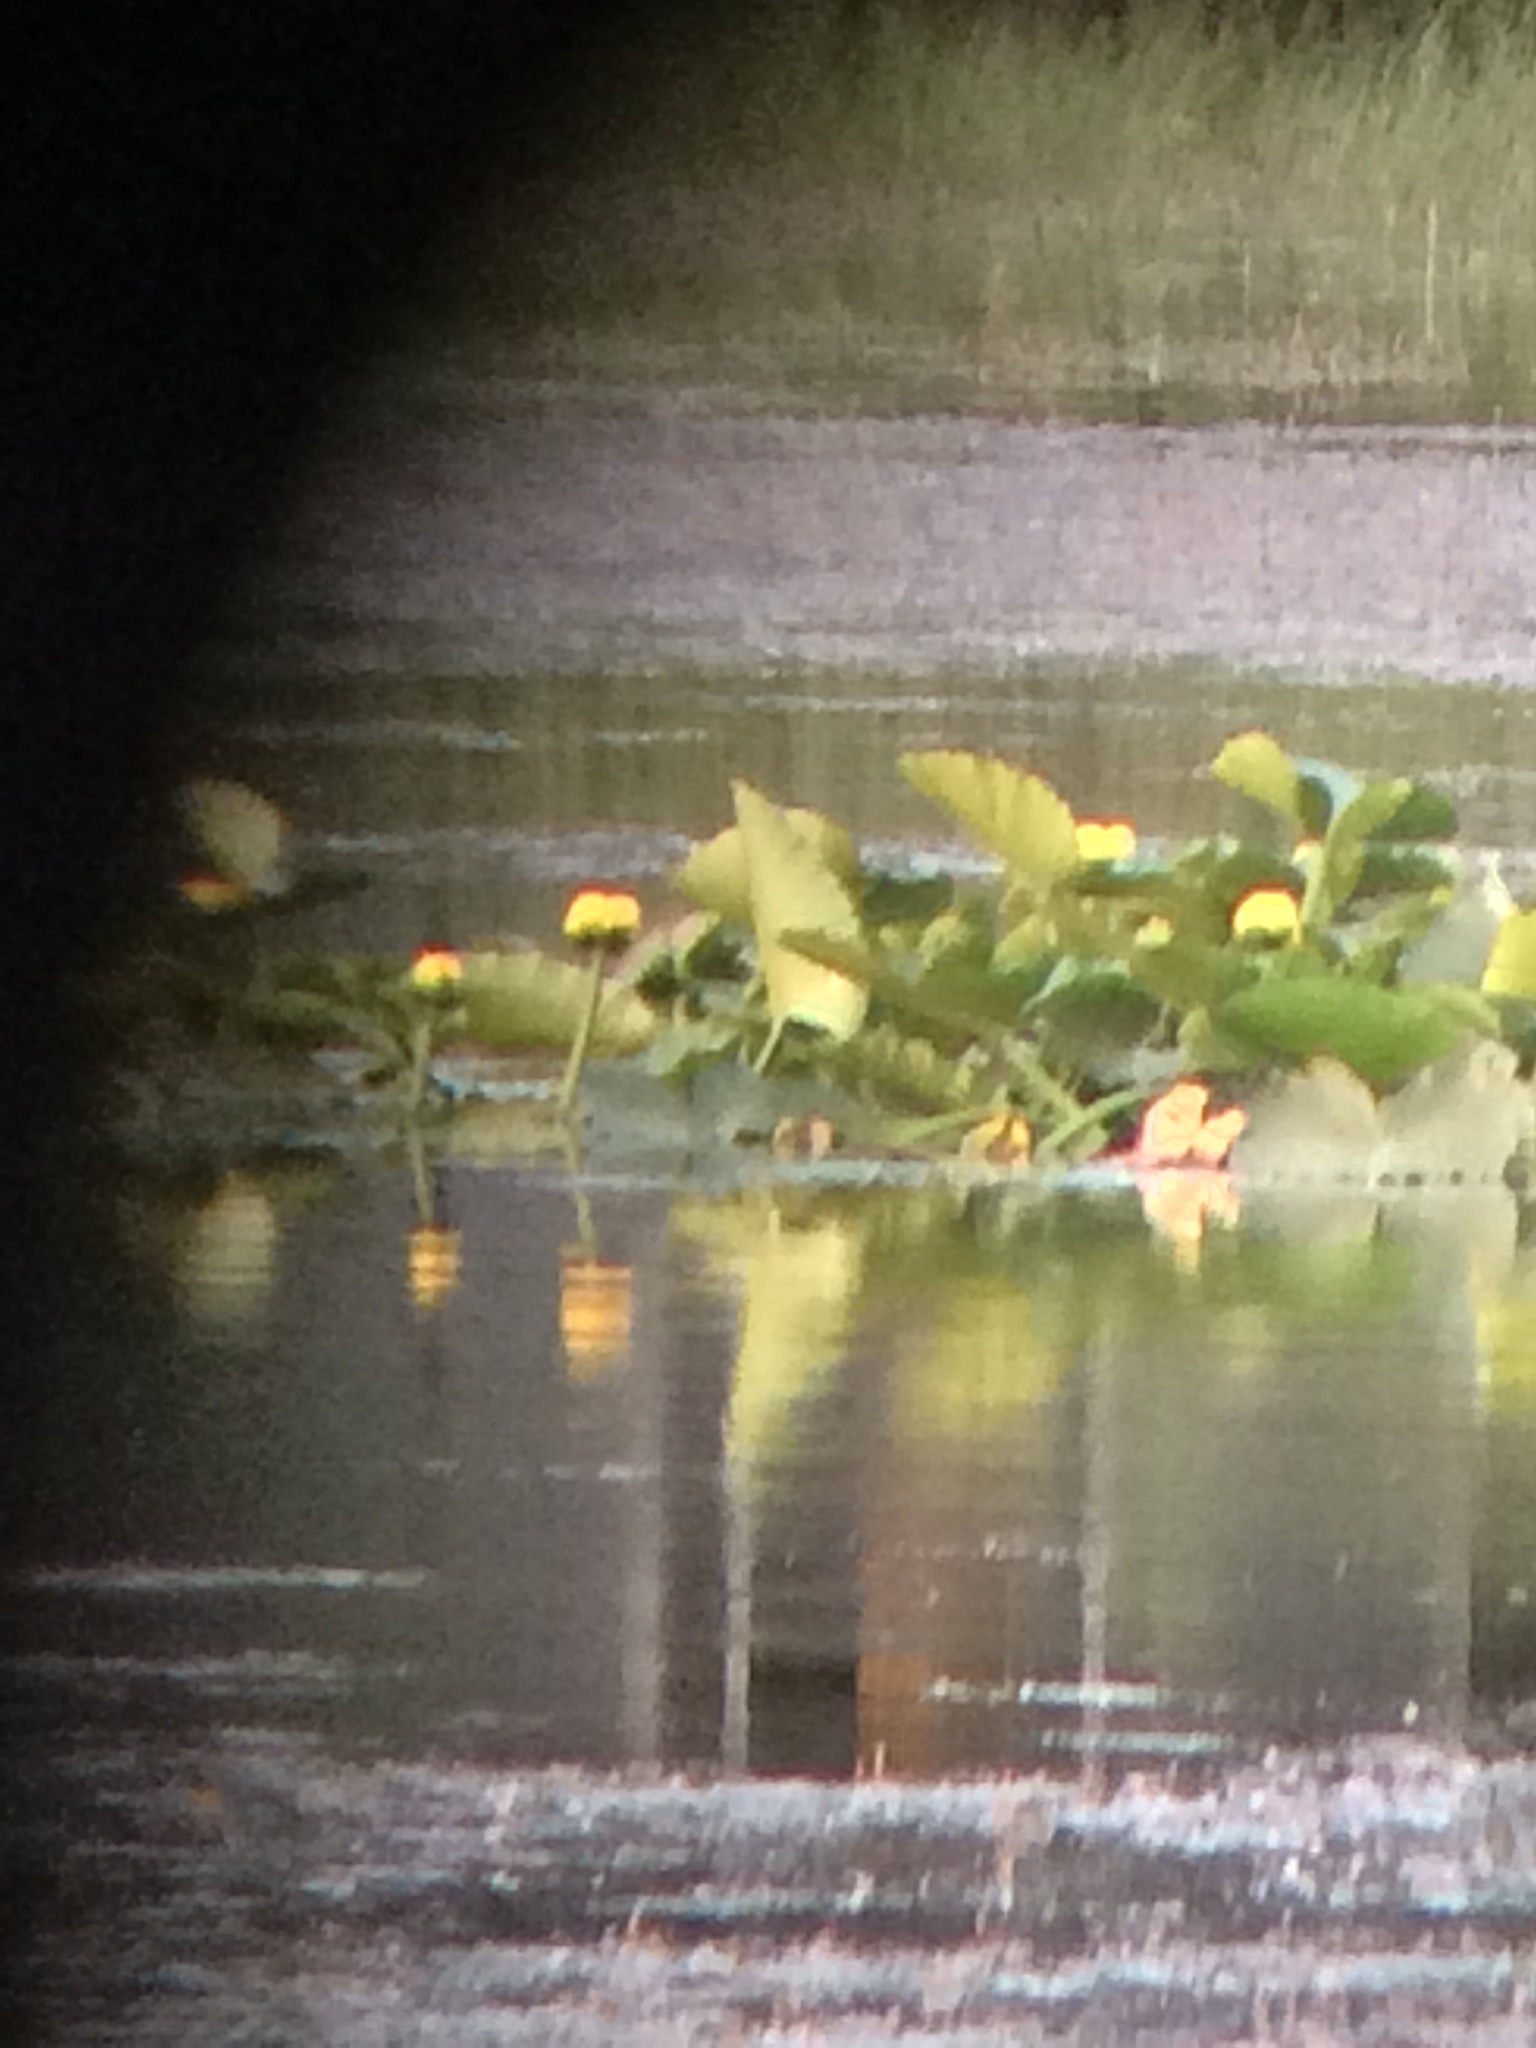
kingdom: Plantae
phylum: Tracheophyta
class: Magnoliopsida
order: Nymphaeales
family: Nymphaeaceae
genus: Nuphar
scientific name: Nuphar polysepala
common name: Rocky mountain cow-lily
